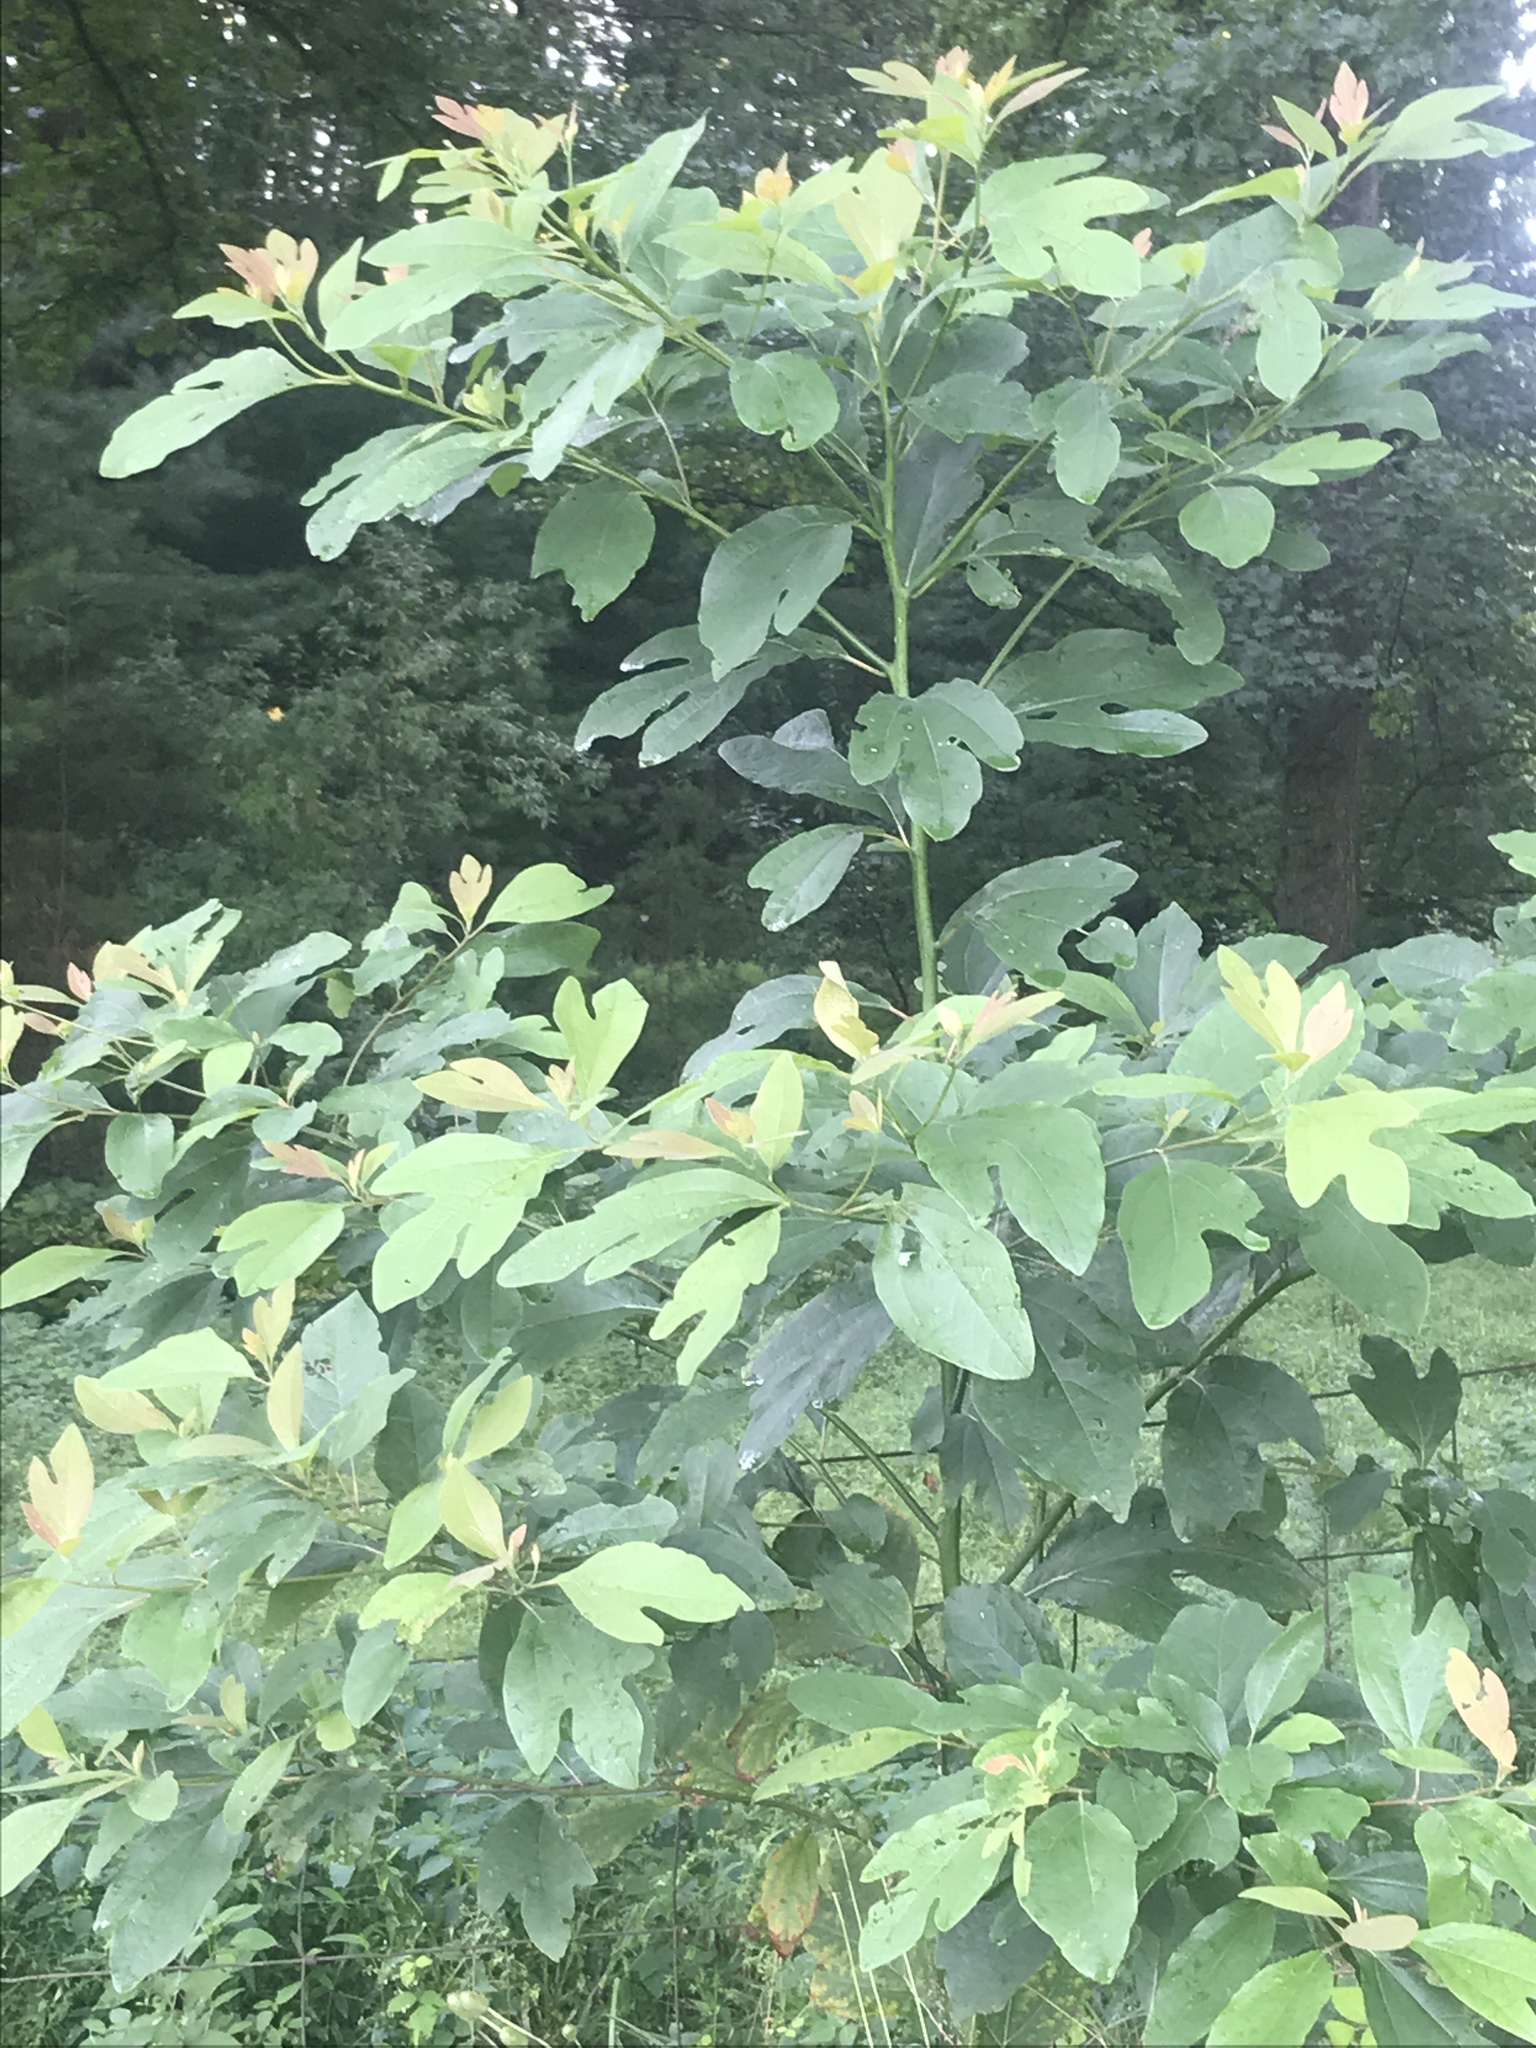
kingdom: Plantae
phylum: Tracheophyta
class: Magnoliopsida
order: Laurales
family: Lauraceae
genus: Sassafras
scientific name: Sassafras albidum
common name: Sassafras
